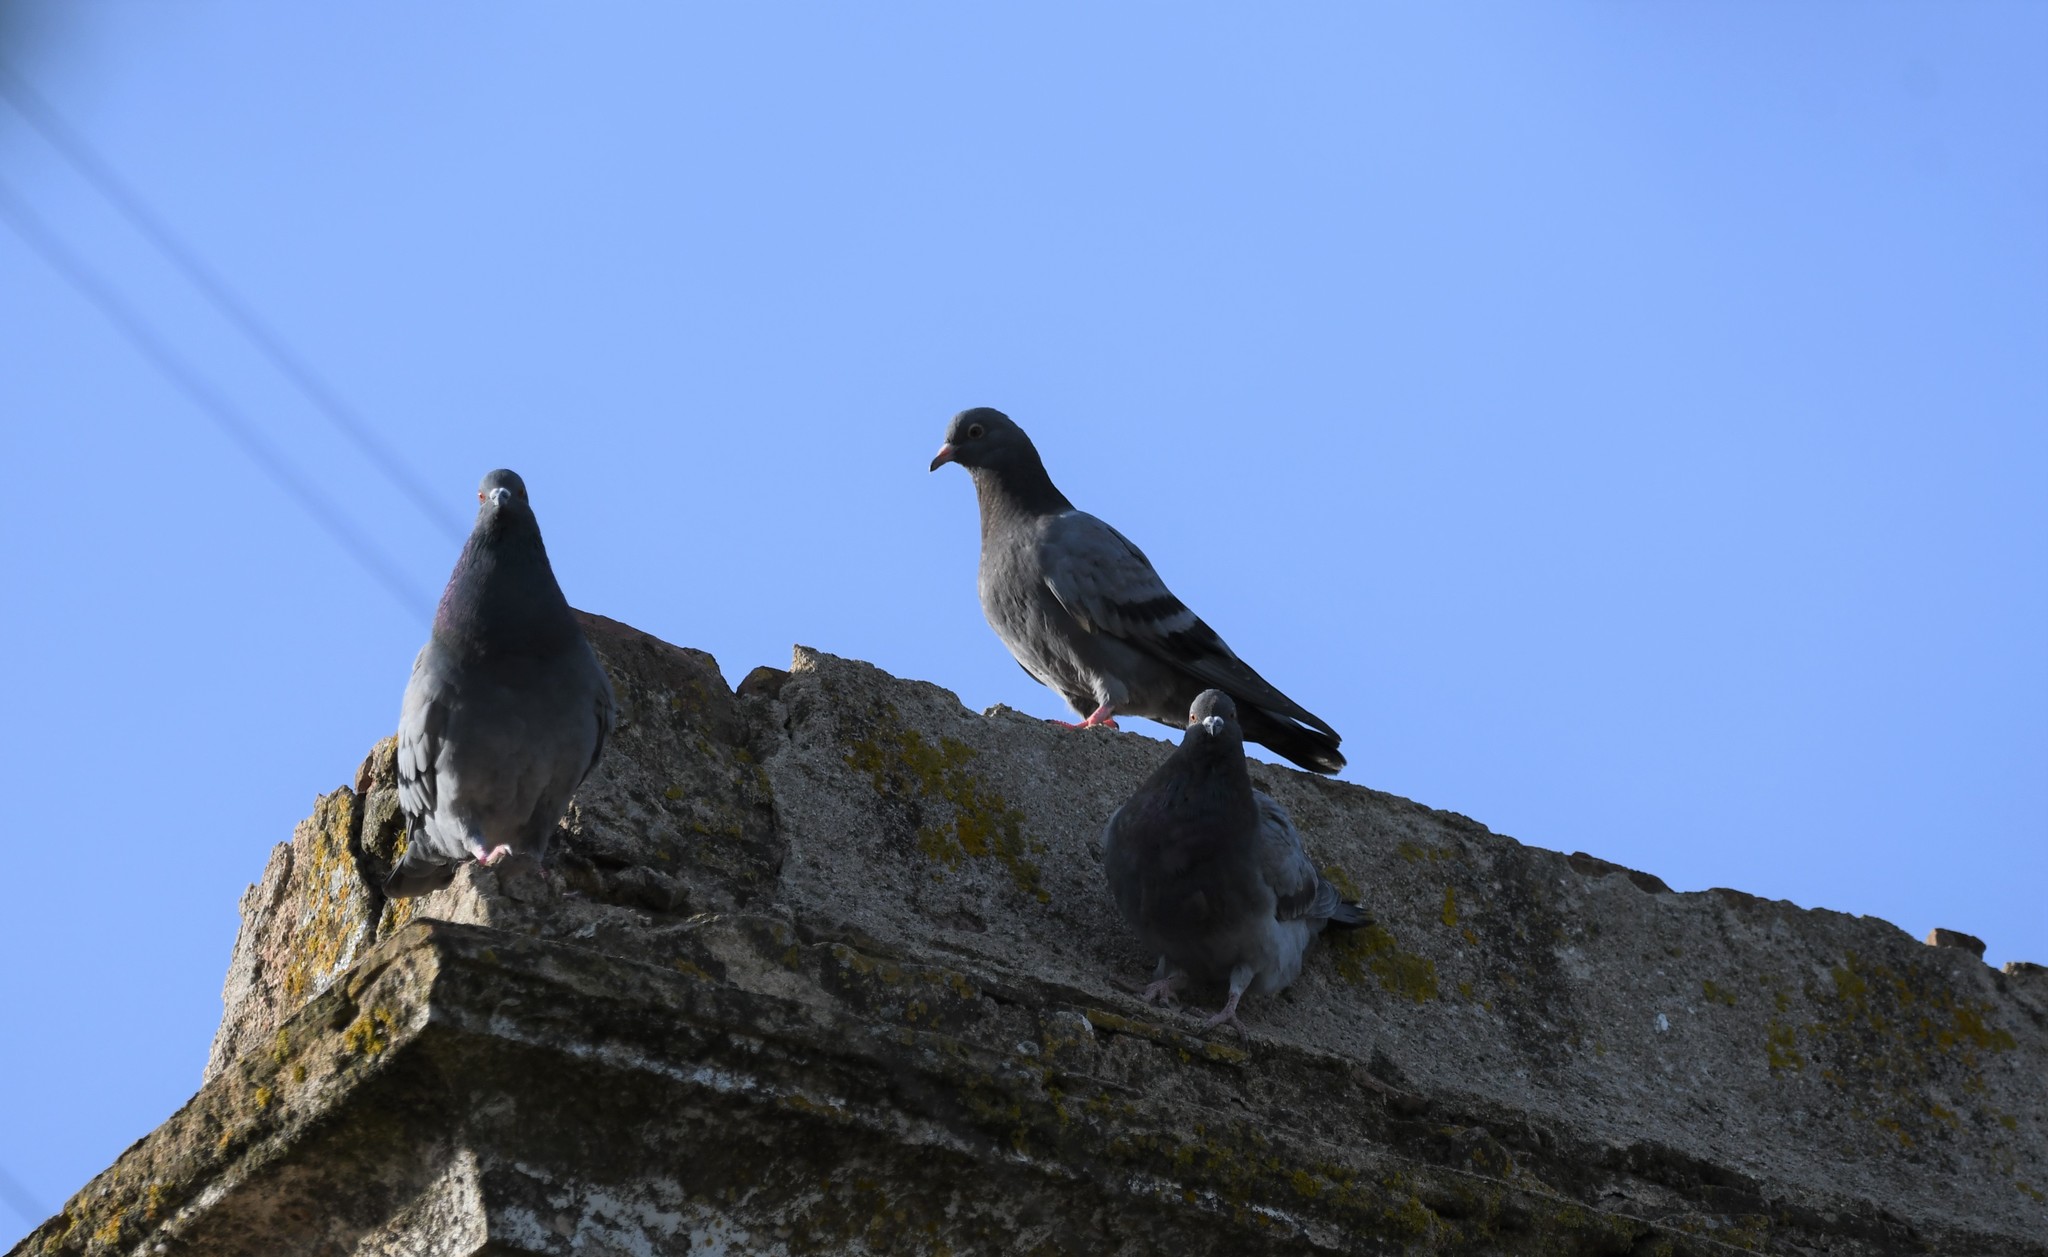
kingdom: Animalia
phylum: Chordata
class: Aves
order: Columbiformes
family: Columbidae
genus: Columba
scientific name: Columba livia
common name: Rock pigeon
